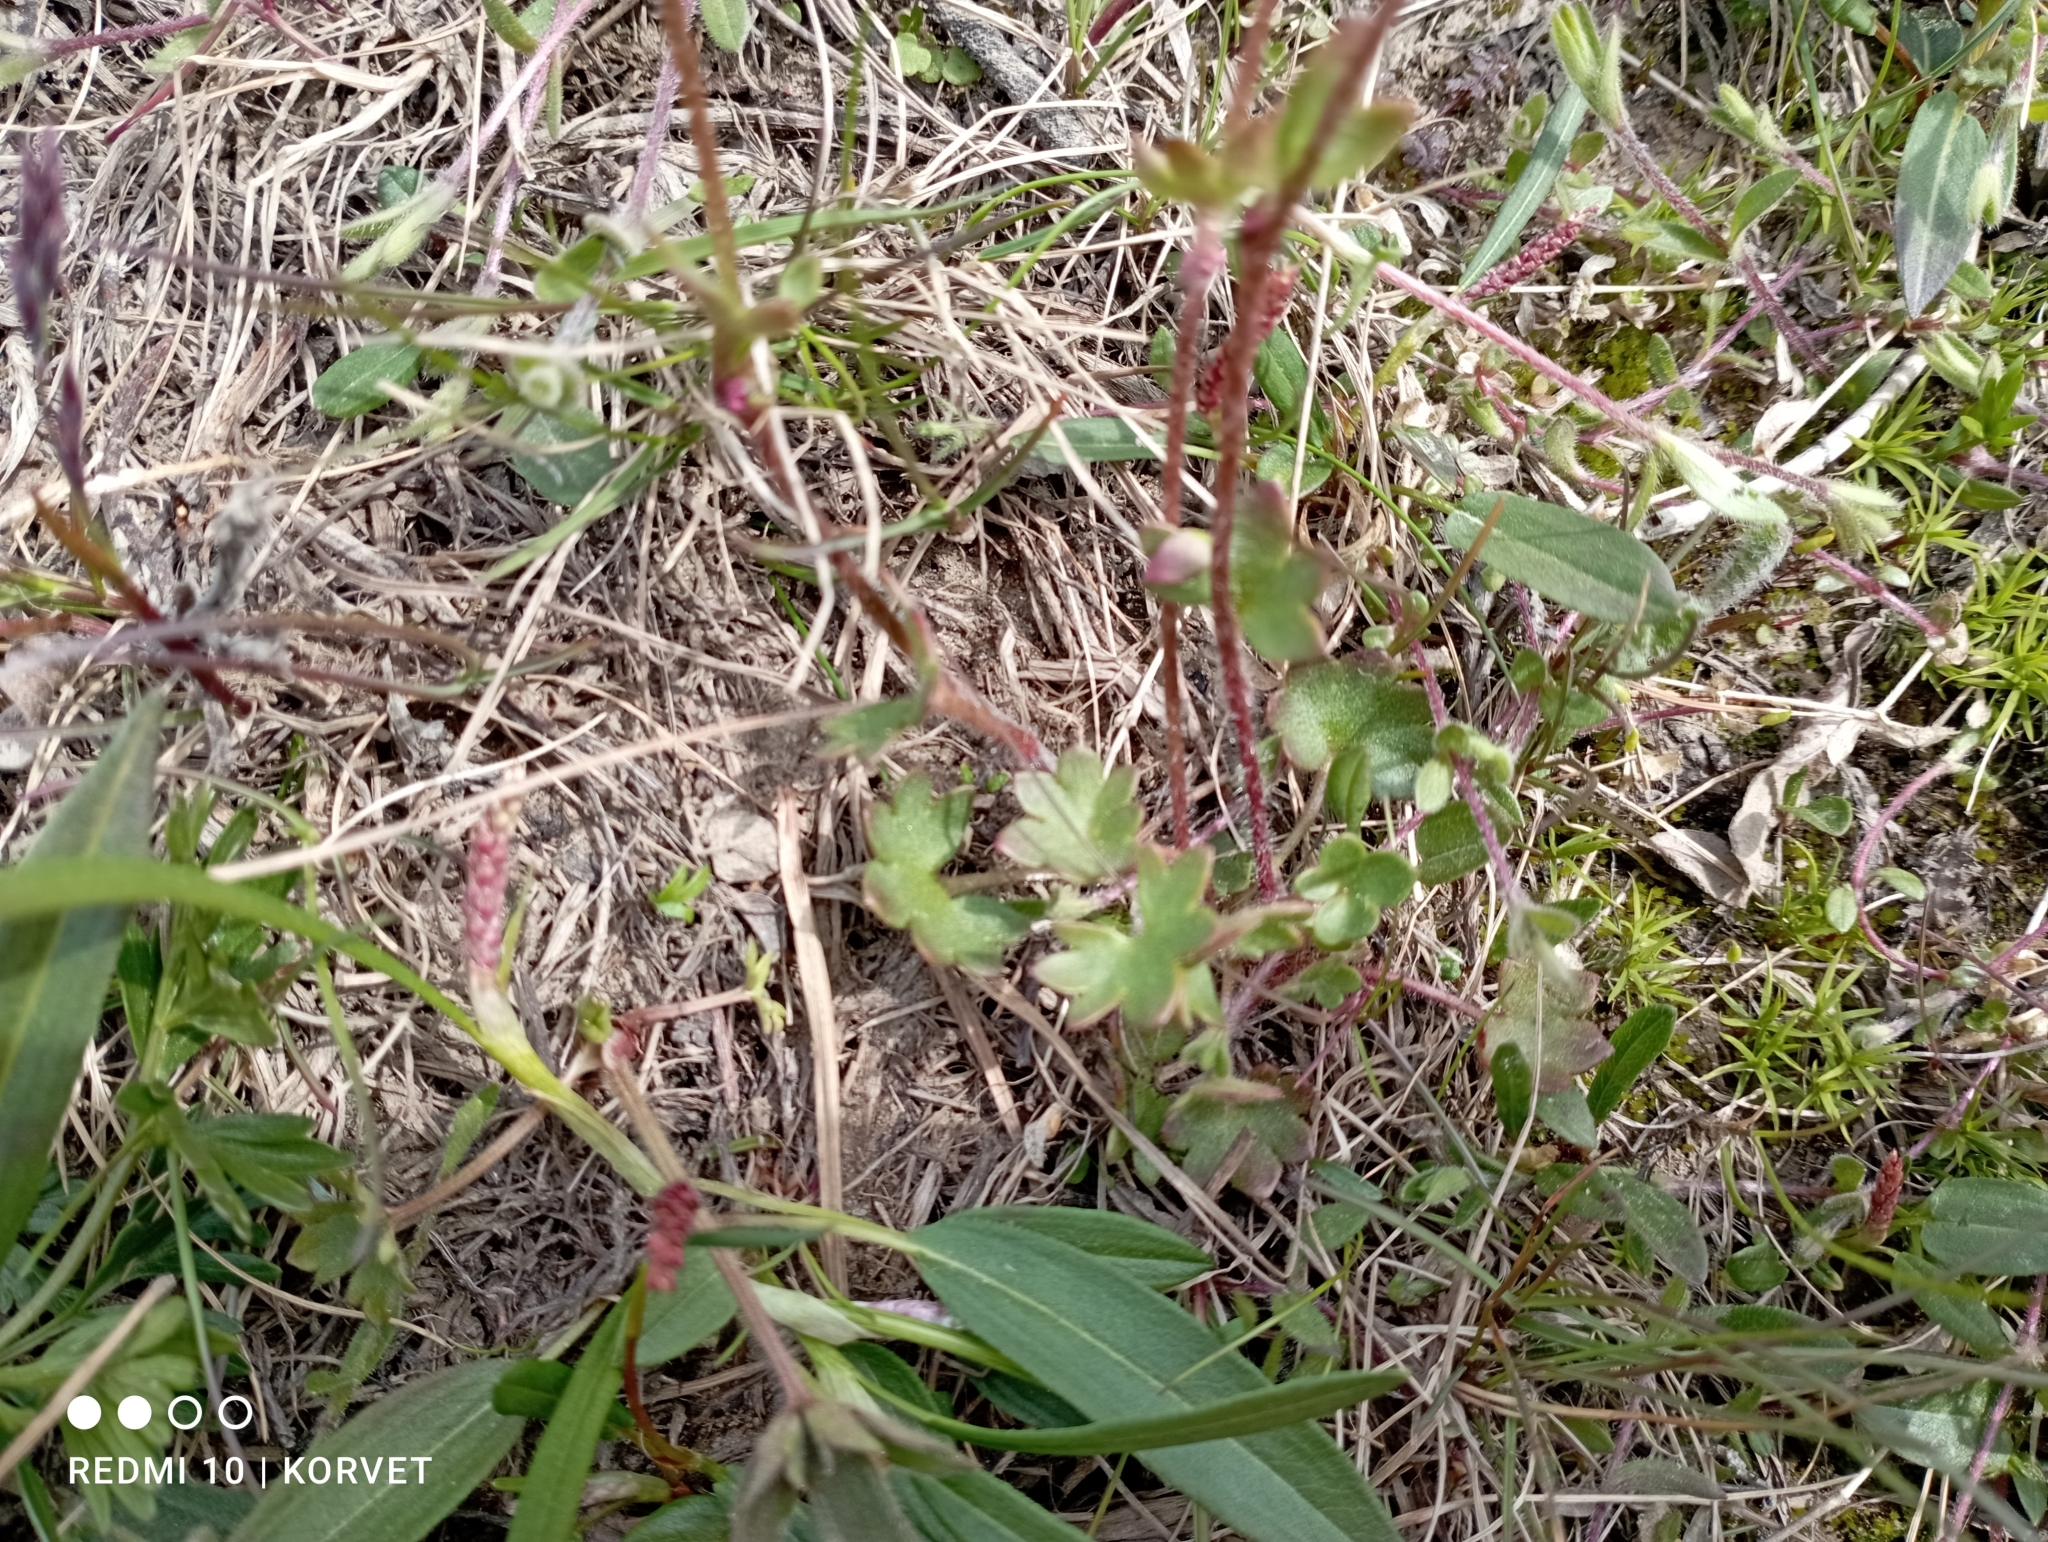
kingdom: Plantae
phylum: Tracheophyta
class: Magnoliopsida
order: Saxifragales
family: Saxifragaceae
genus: Saxifraga
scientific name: Saxifraga cernua
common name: Drooping saxifrage
